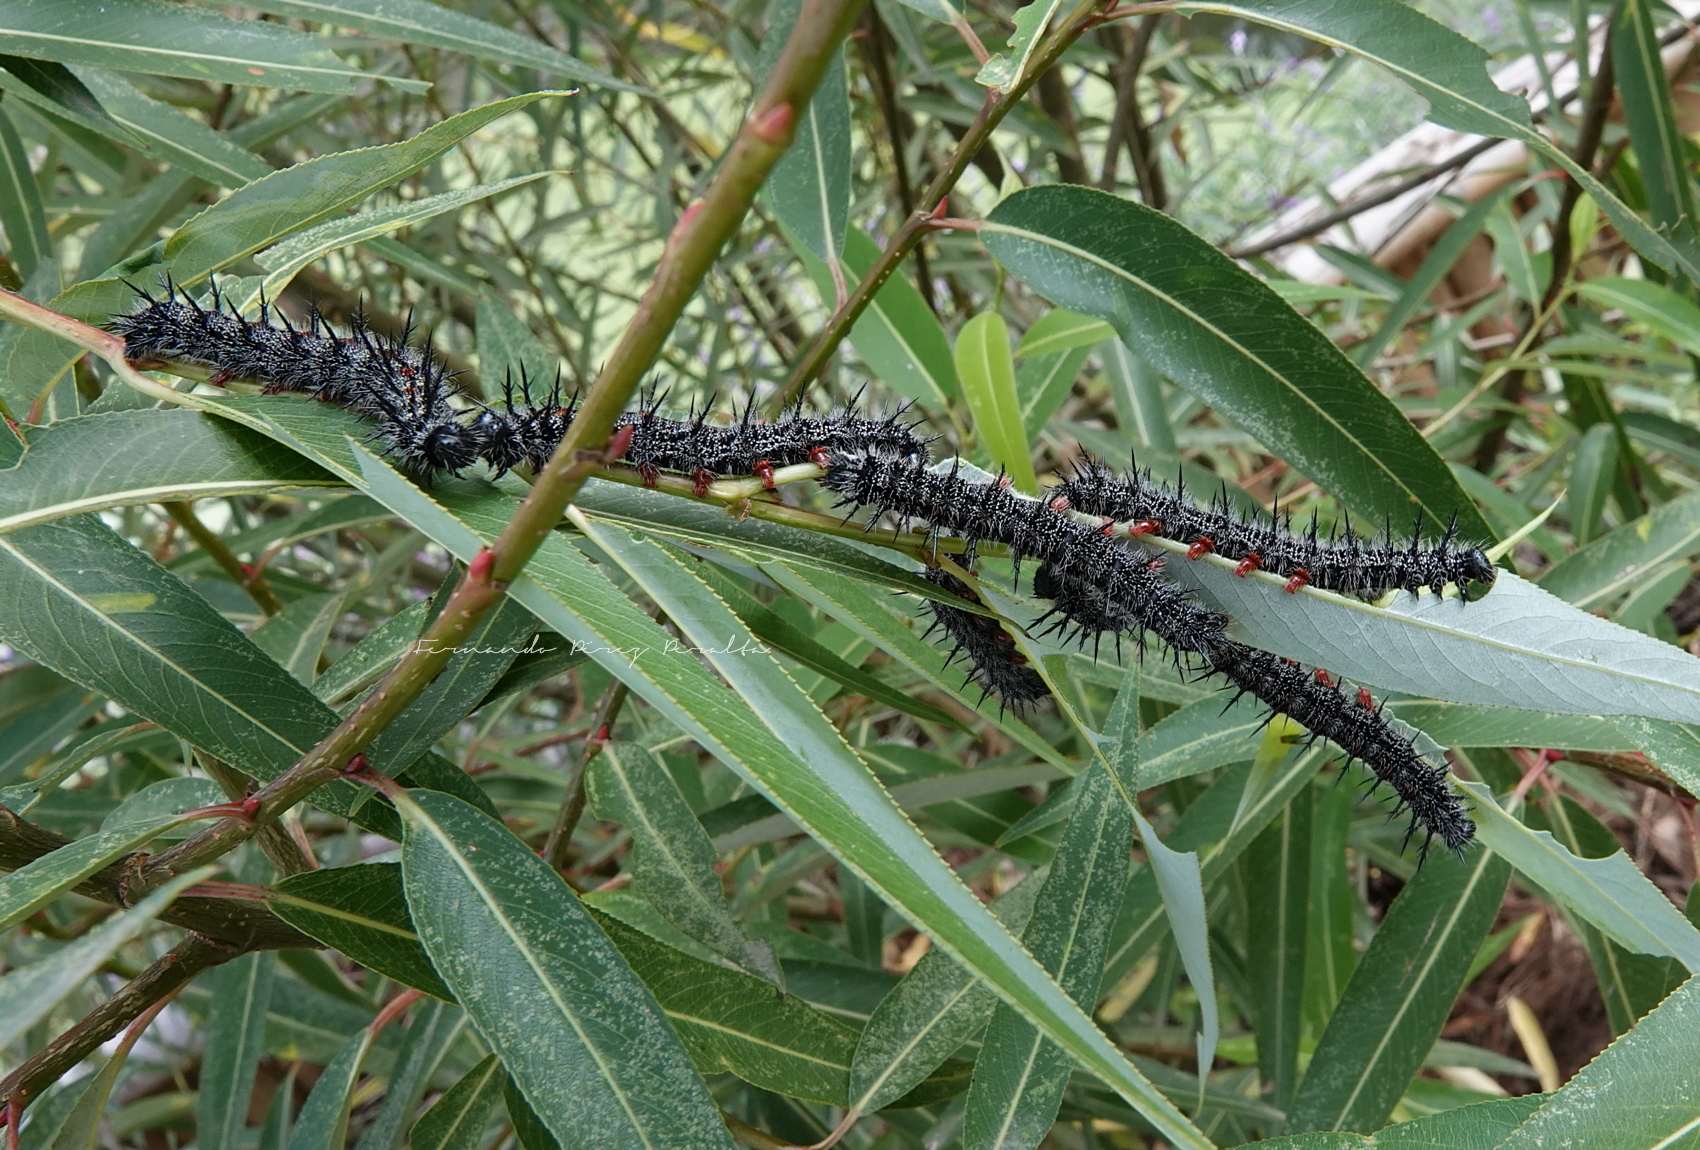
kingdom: Animalia
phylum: Arthropoda
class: Insecta
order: Lepidoptera
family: Nymphalidae
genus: Nymphalis
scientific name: Nymphalis antiopa
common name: Camberwell beauty
